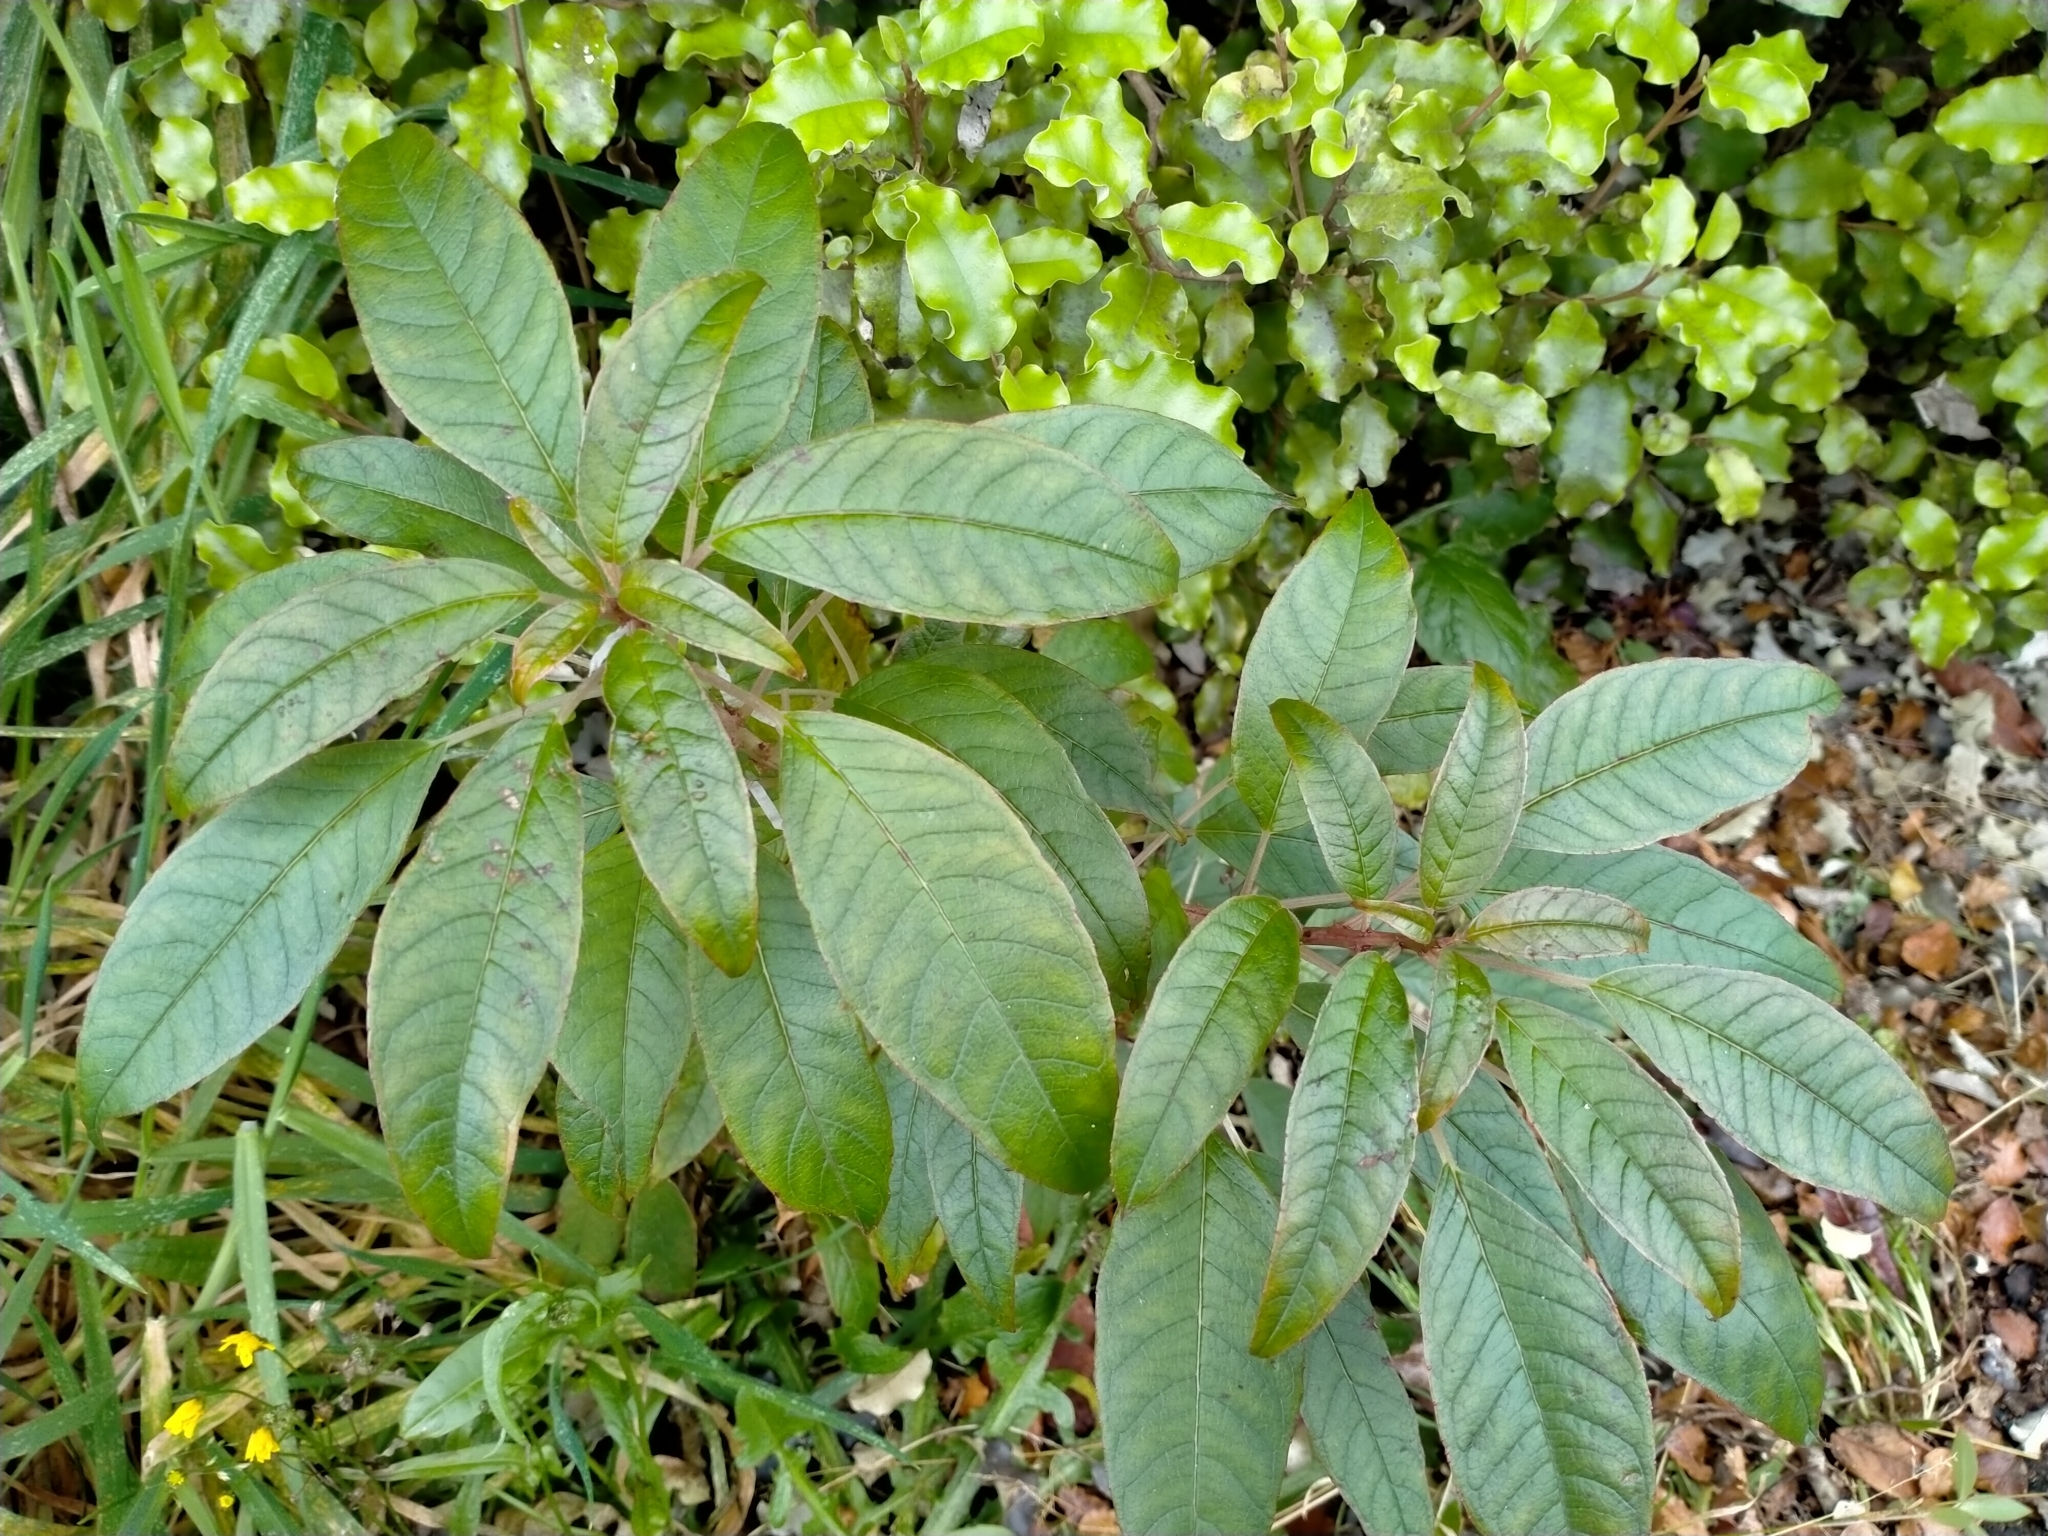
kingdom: Plantae
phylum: Tracheophyta
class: Magnoliopsida
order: Myrtales
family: Onagraceae
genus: Fuchsia
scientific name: Fuchsia excorticata
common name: Tree fuchsia
